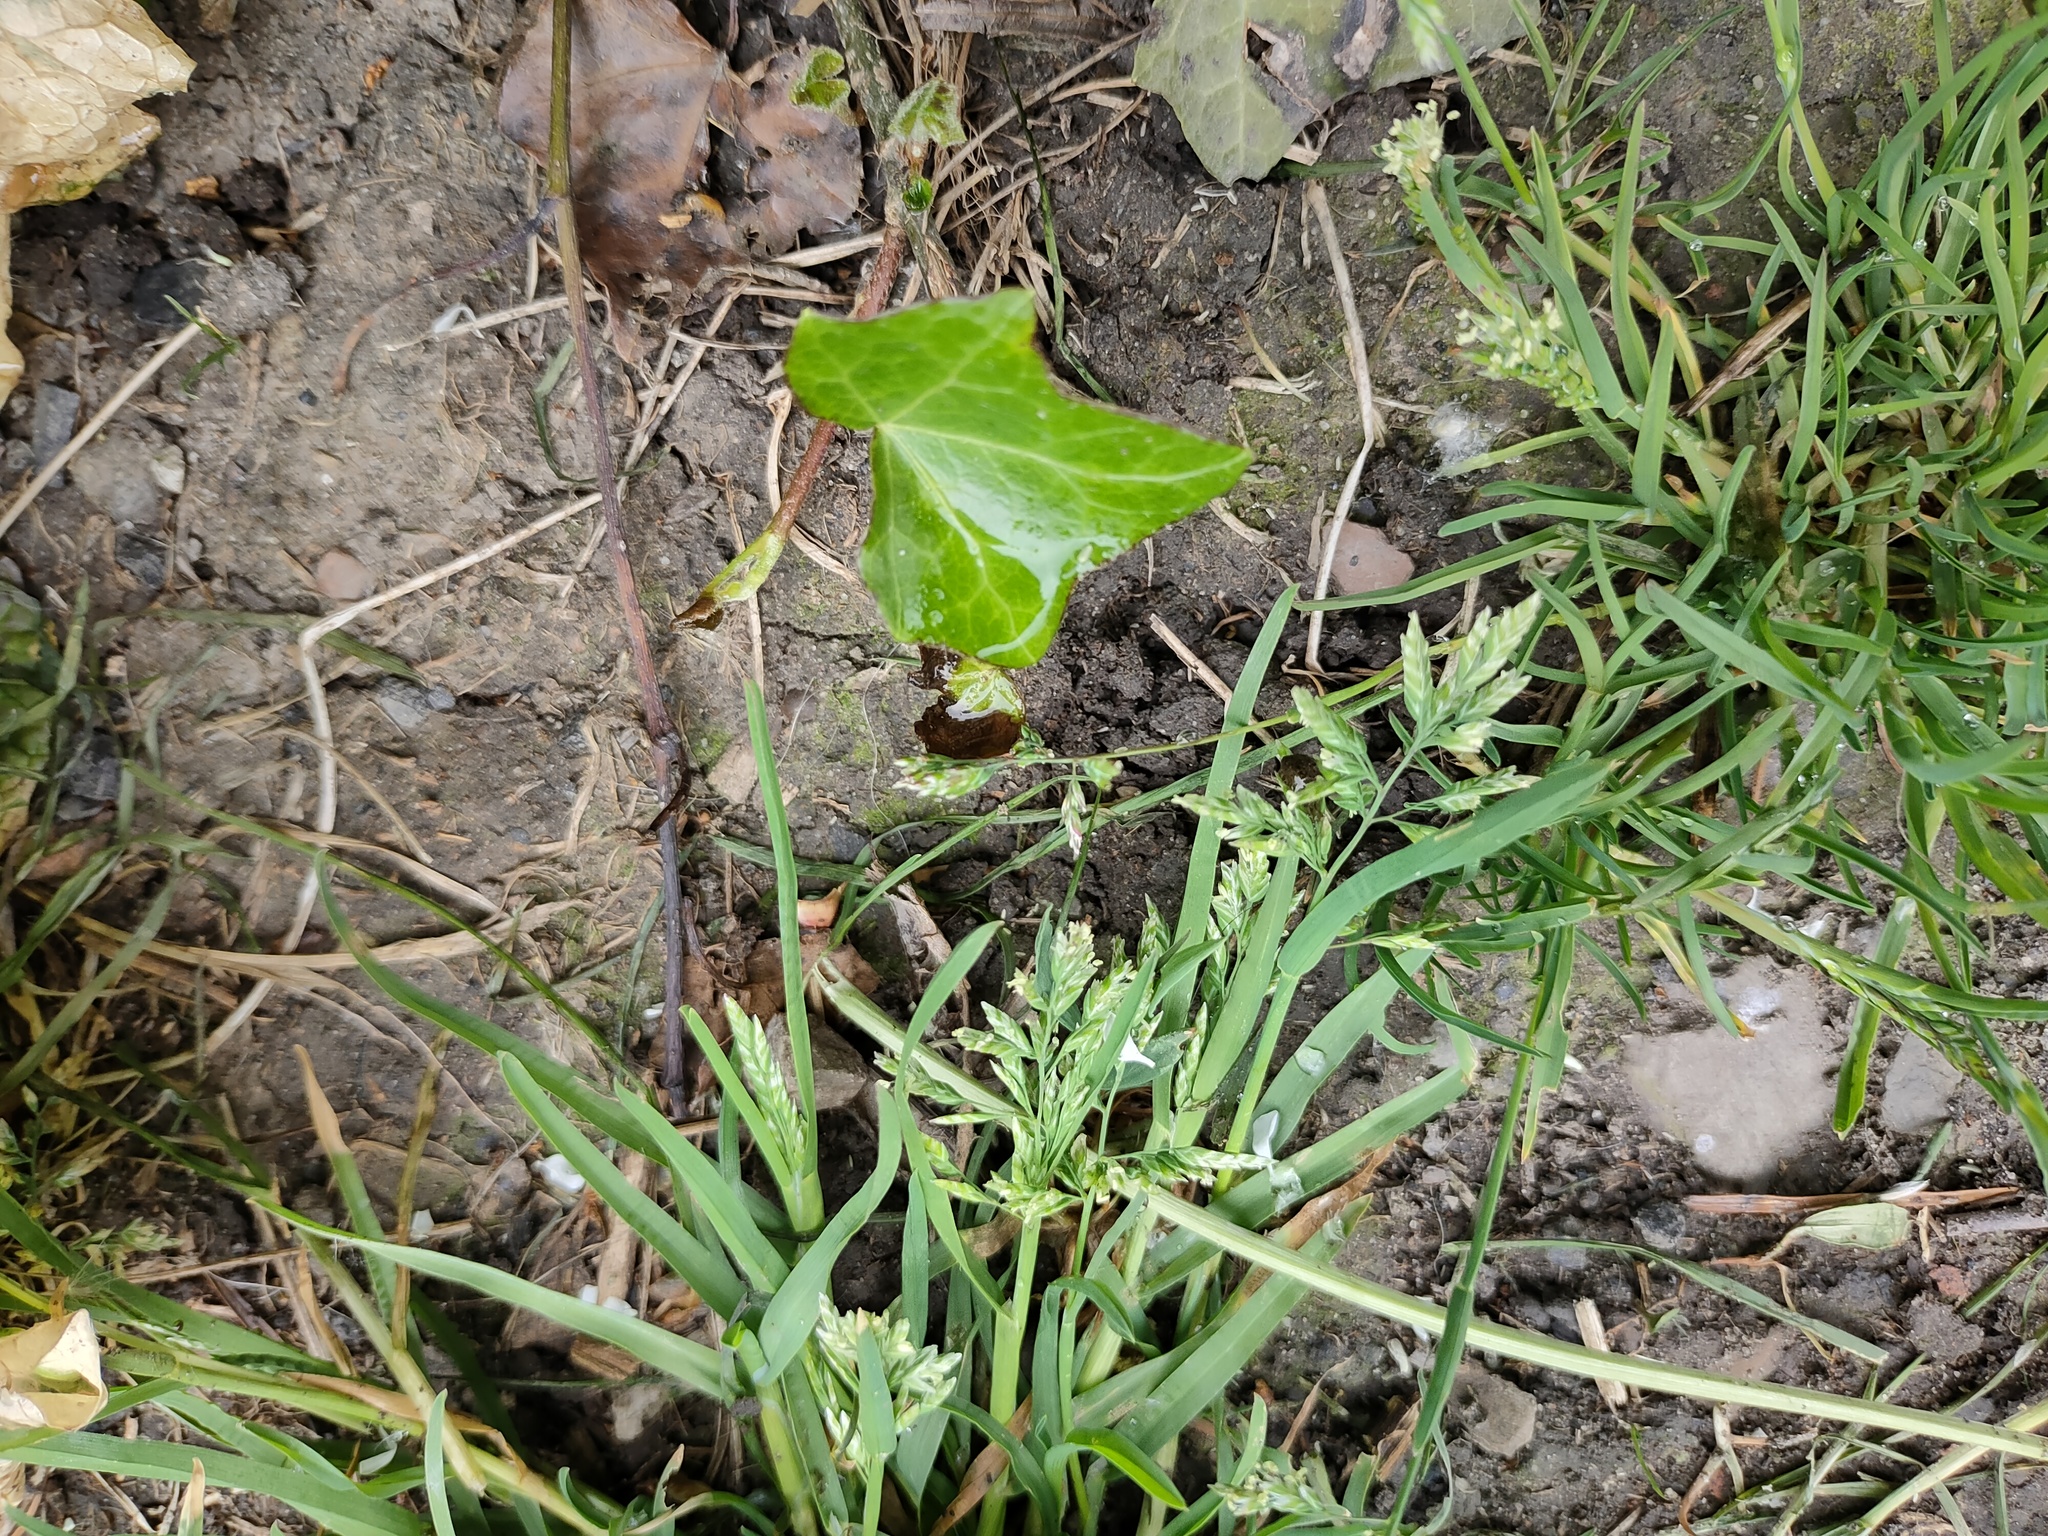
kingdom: Plantae
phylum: Tracheophyta
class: Liliopsida
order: Poales
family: Poaceae
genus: Poa
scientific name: Poa annua
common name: Annual bluegrass
